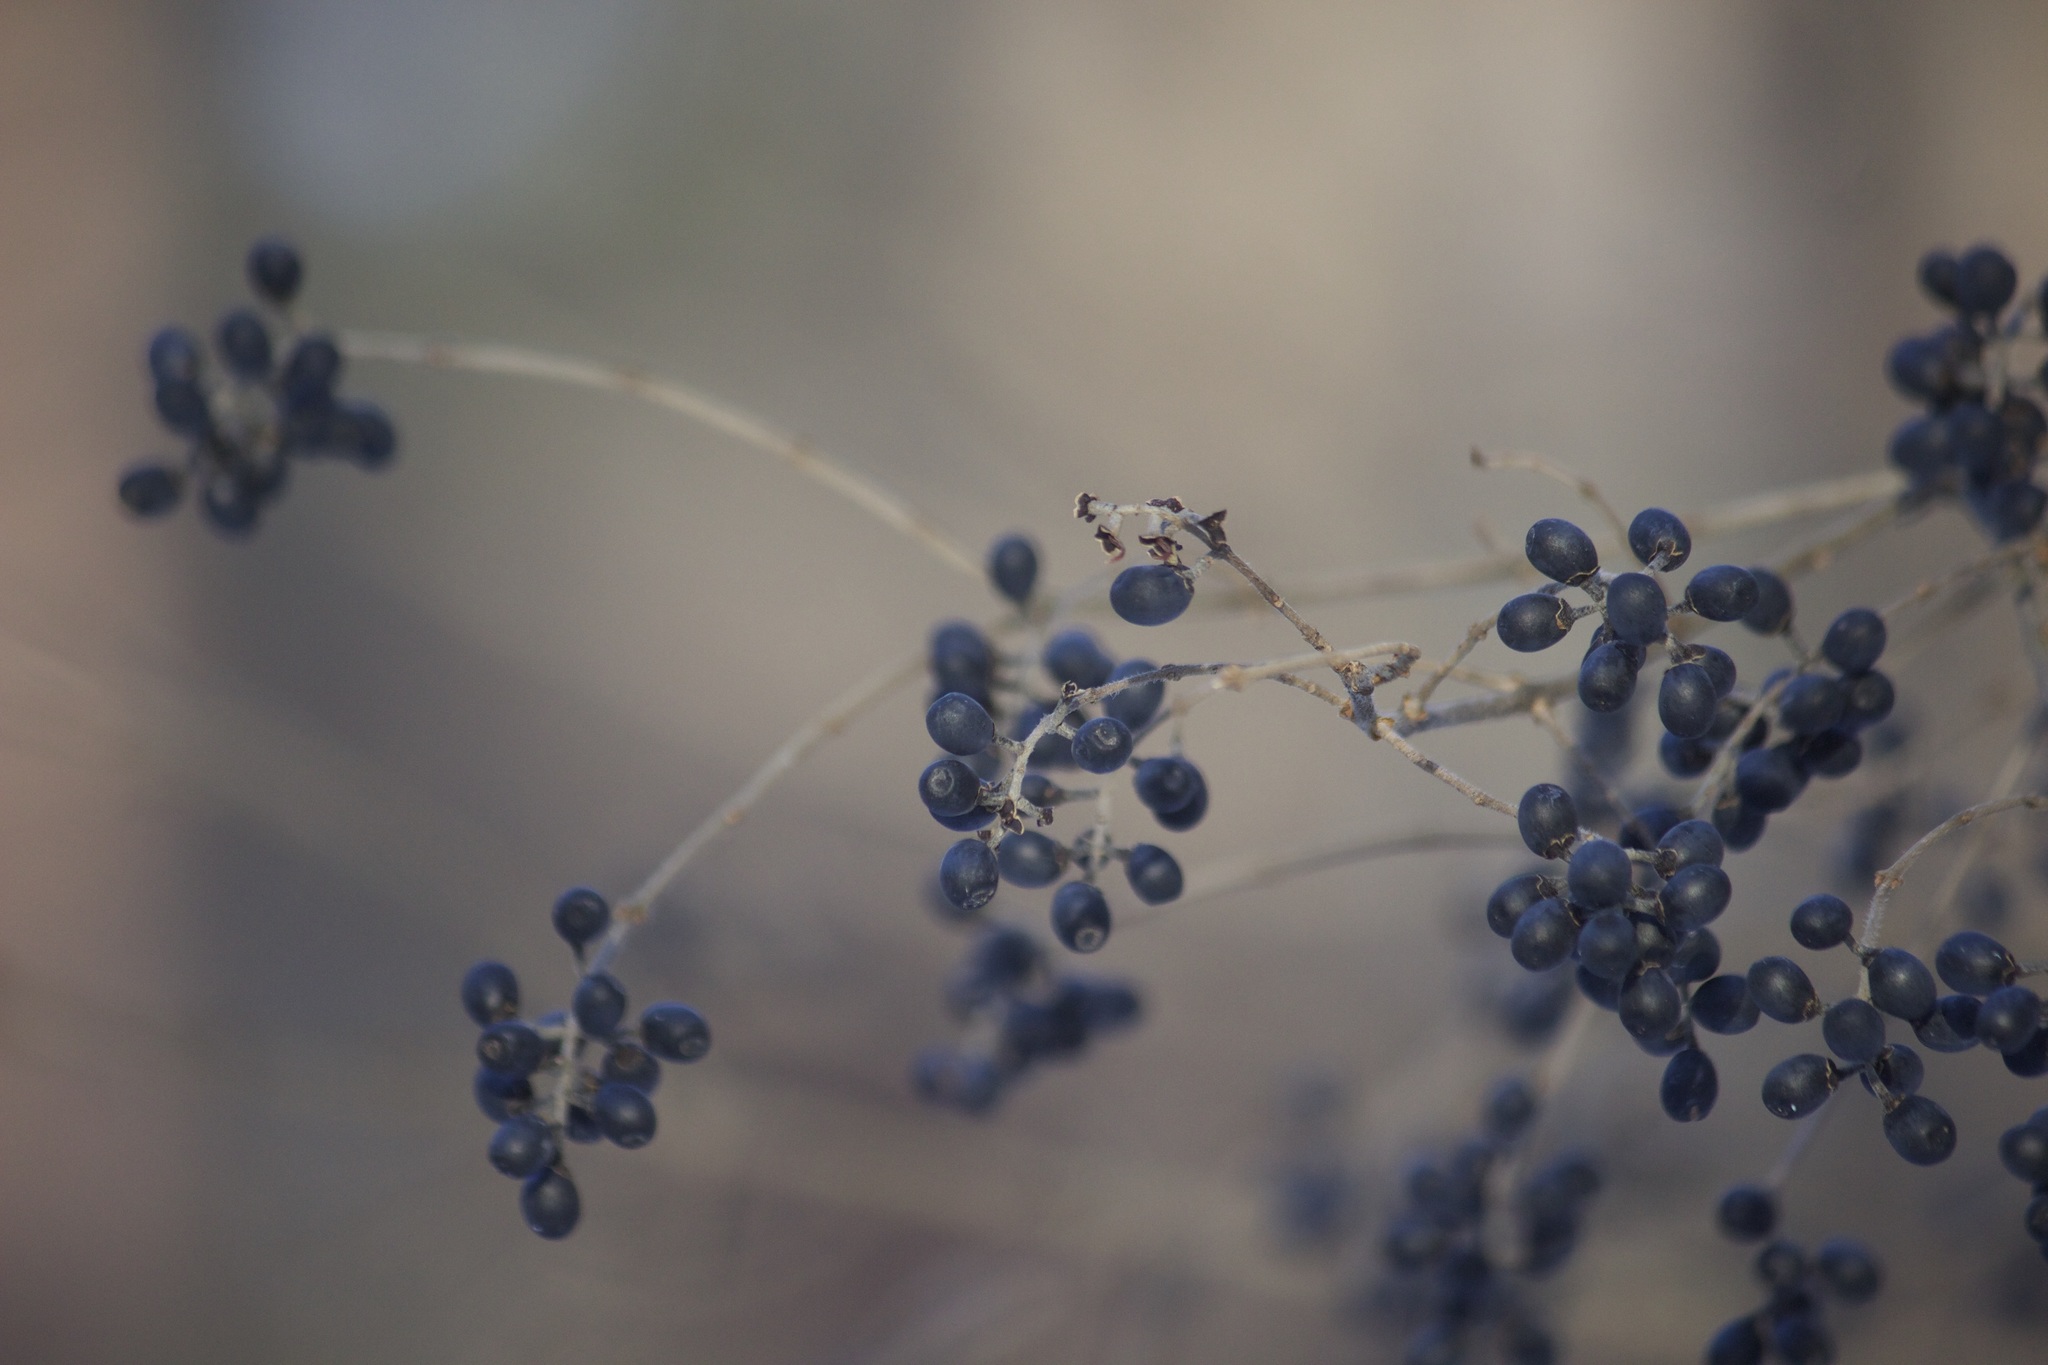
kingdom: Plantae
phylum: Tracheophyta
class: Magnoliopsida
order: Lamiales
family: Oleaceae
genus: Ligustrum
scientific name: Ligustrum obtusifolium
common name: Border privet
